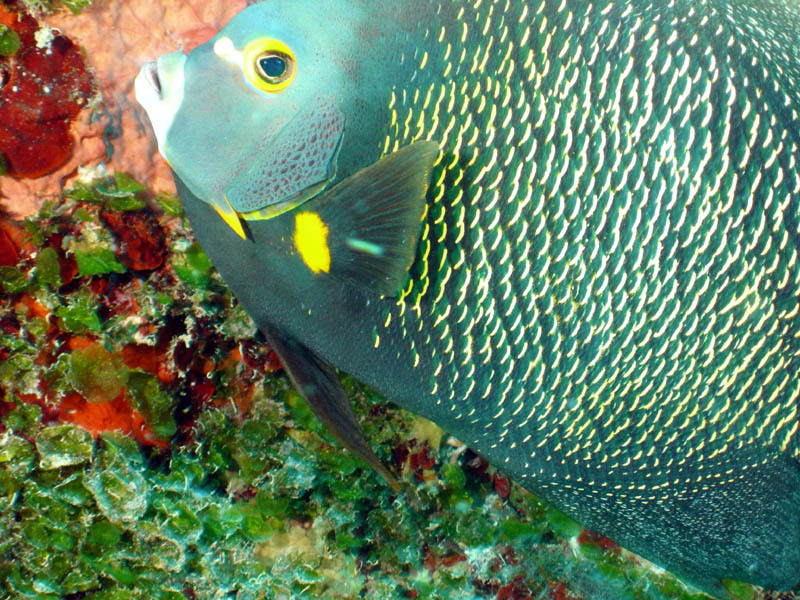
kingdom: Animalia
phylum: Chordata
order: Perciformes
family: Pomacanthidae
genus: Pomacanthus
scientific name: Pomacanthus paru
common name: French angelfish
